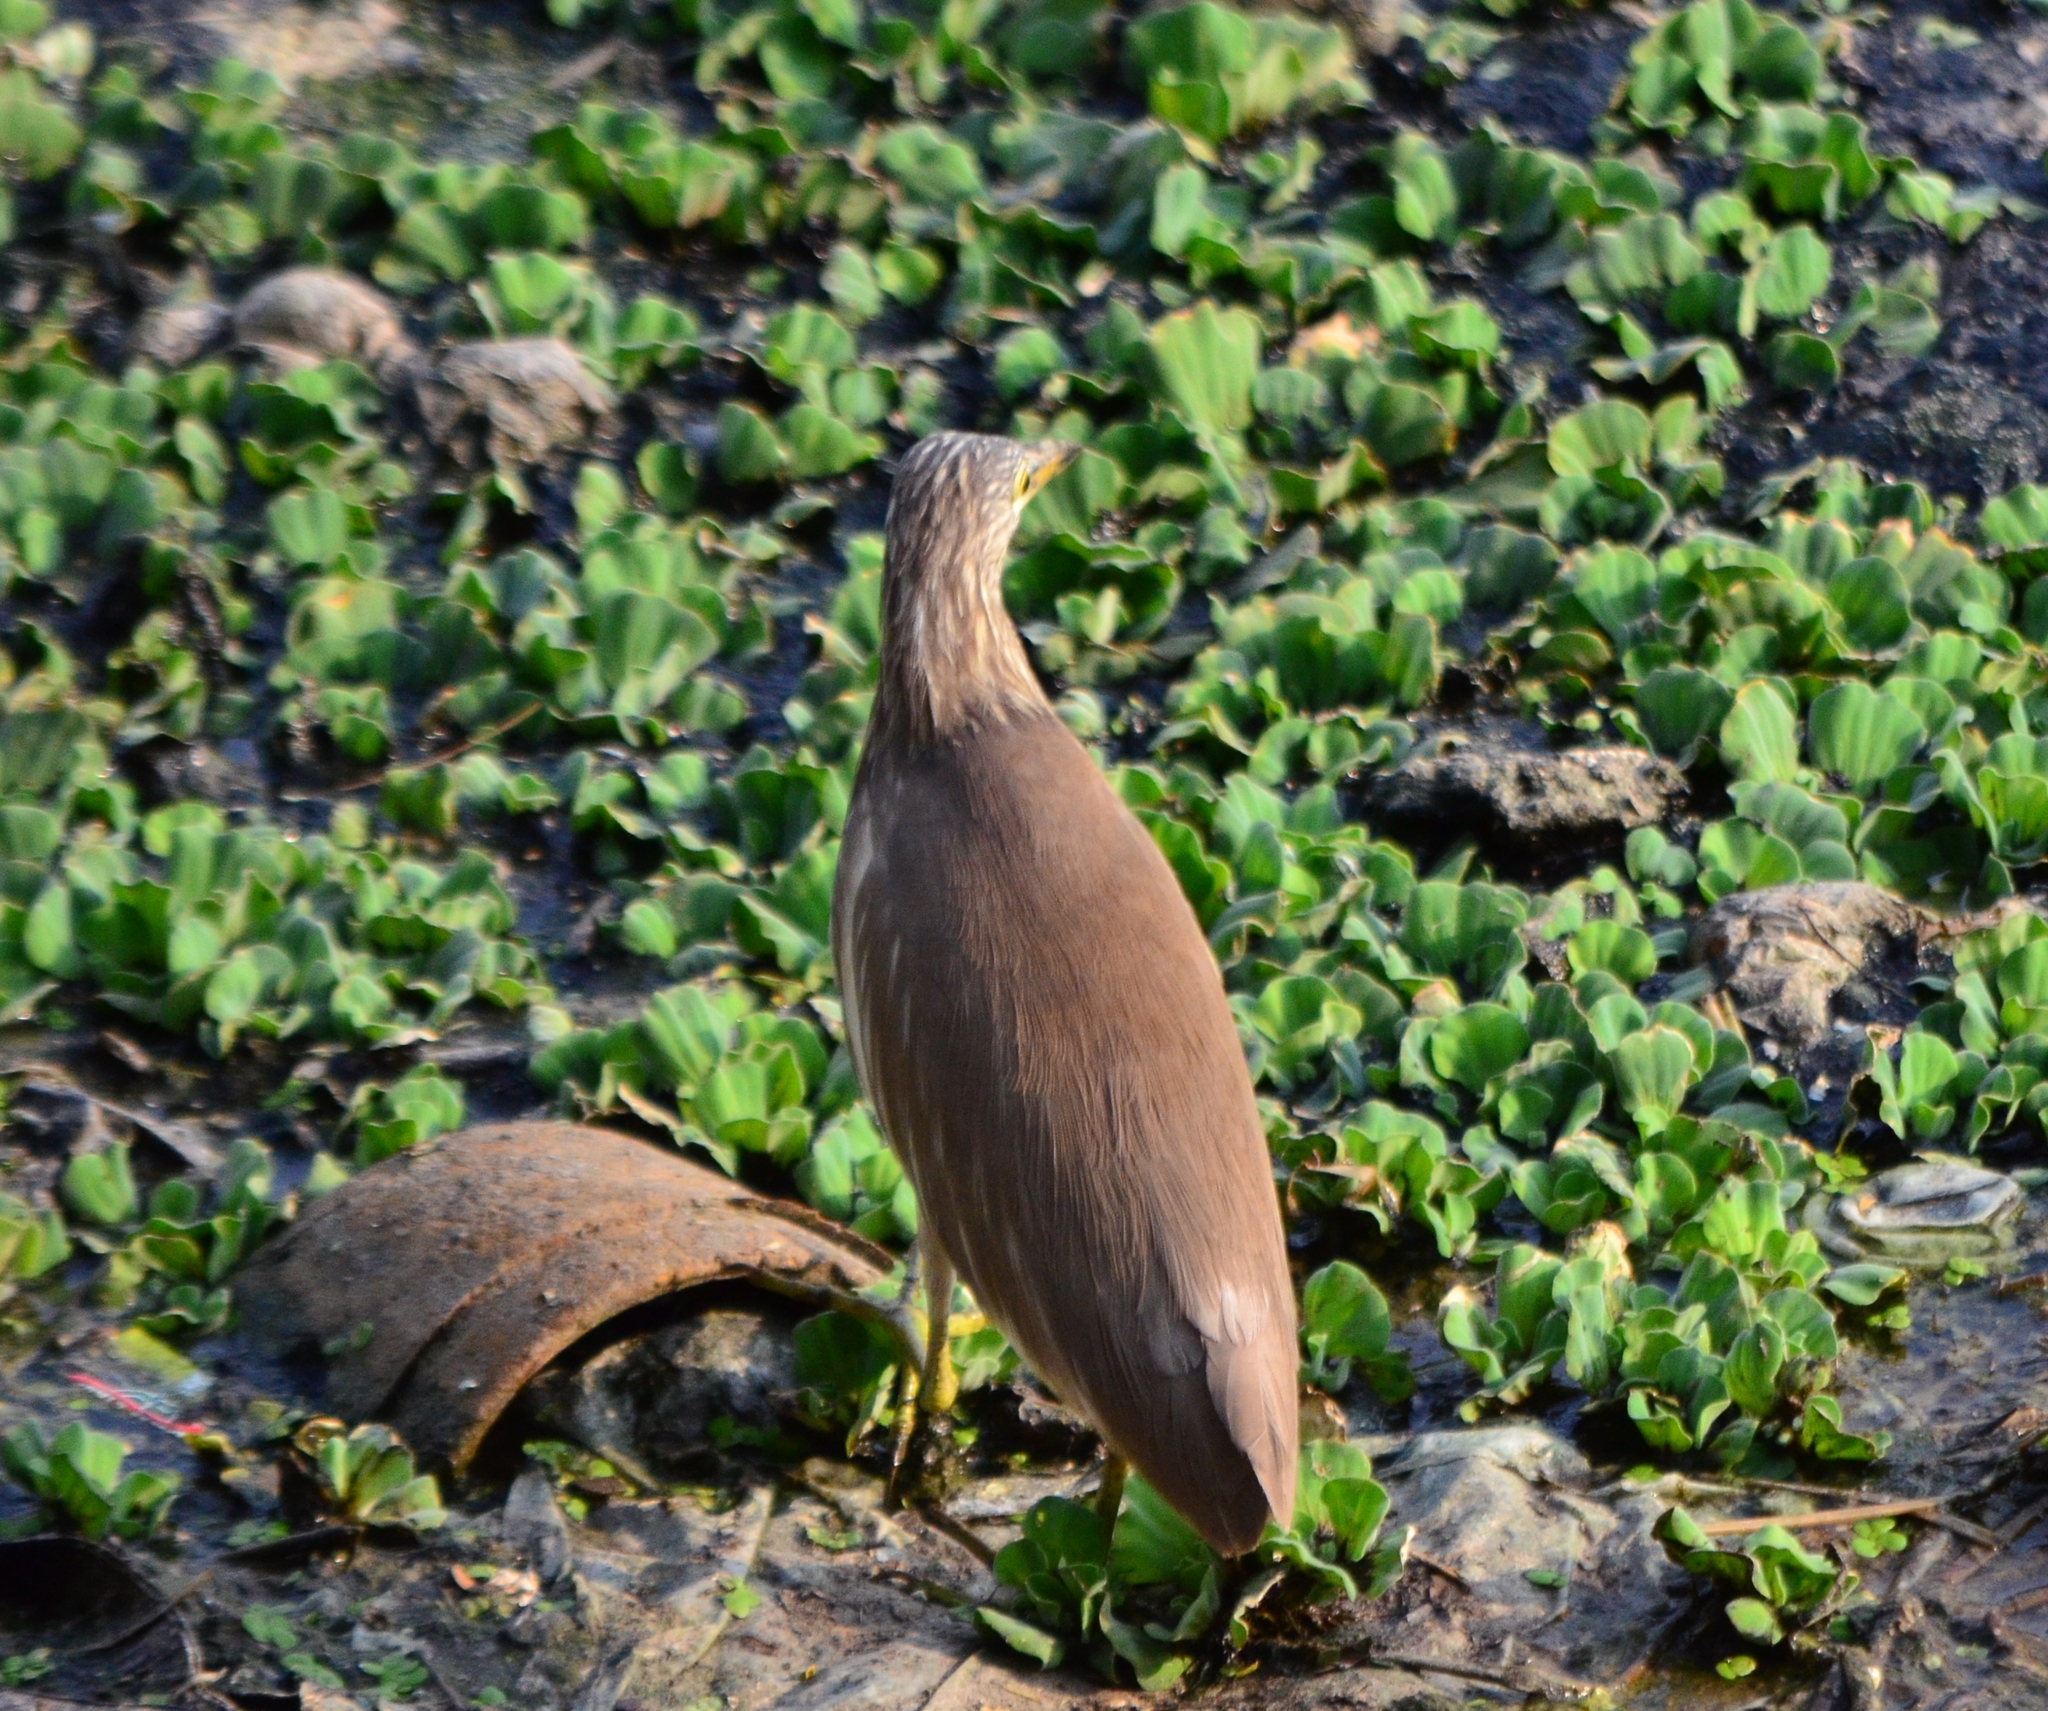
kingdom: Animalia
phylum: Chordata
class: Aves
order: Pelecaniformes
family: Ardeidae
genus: Ardeola
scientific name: Ardeola grayii
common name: Indian pond heron
